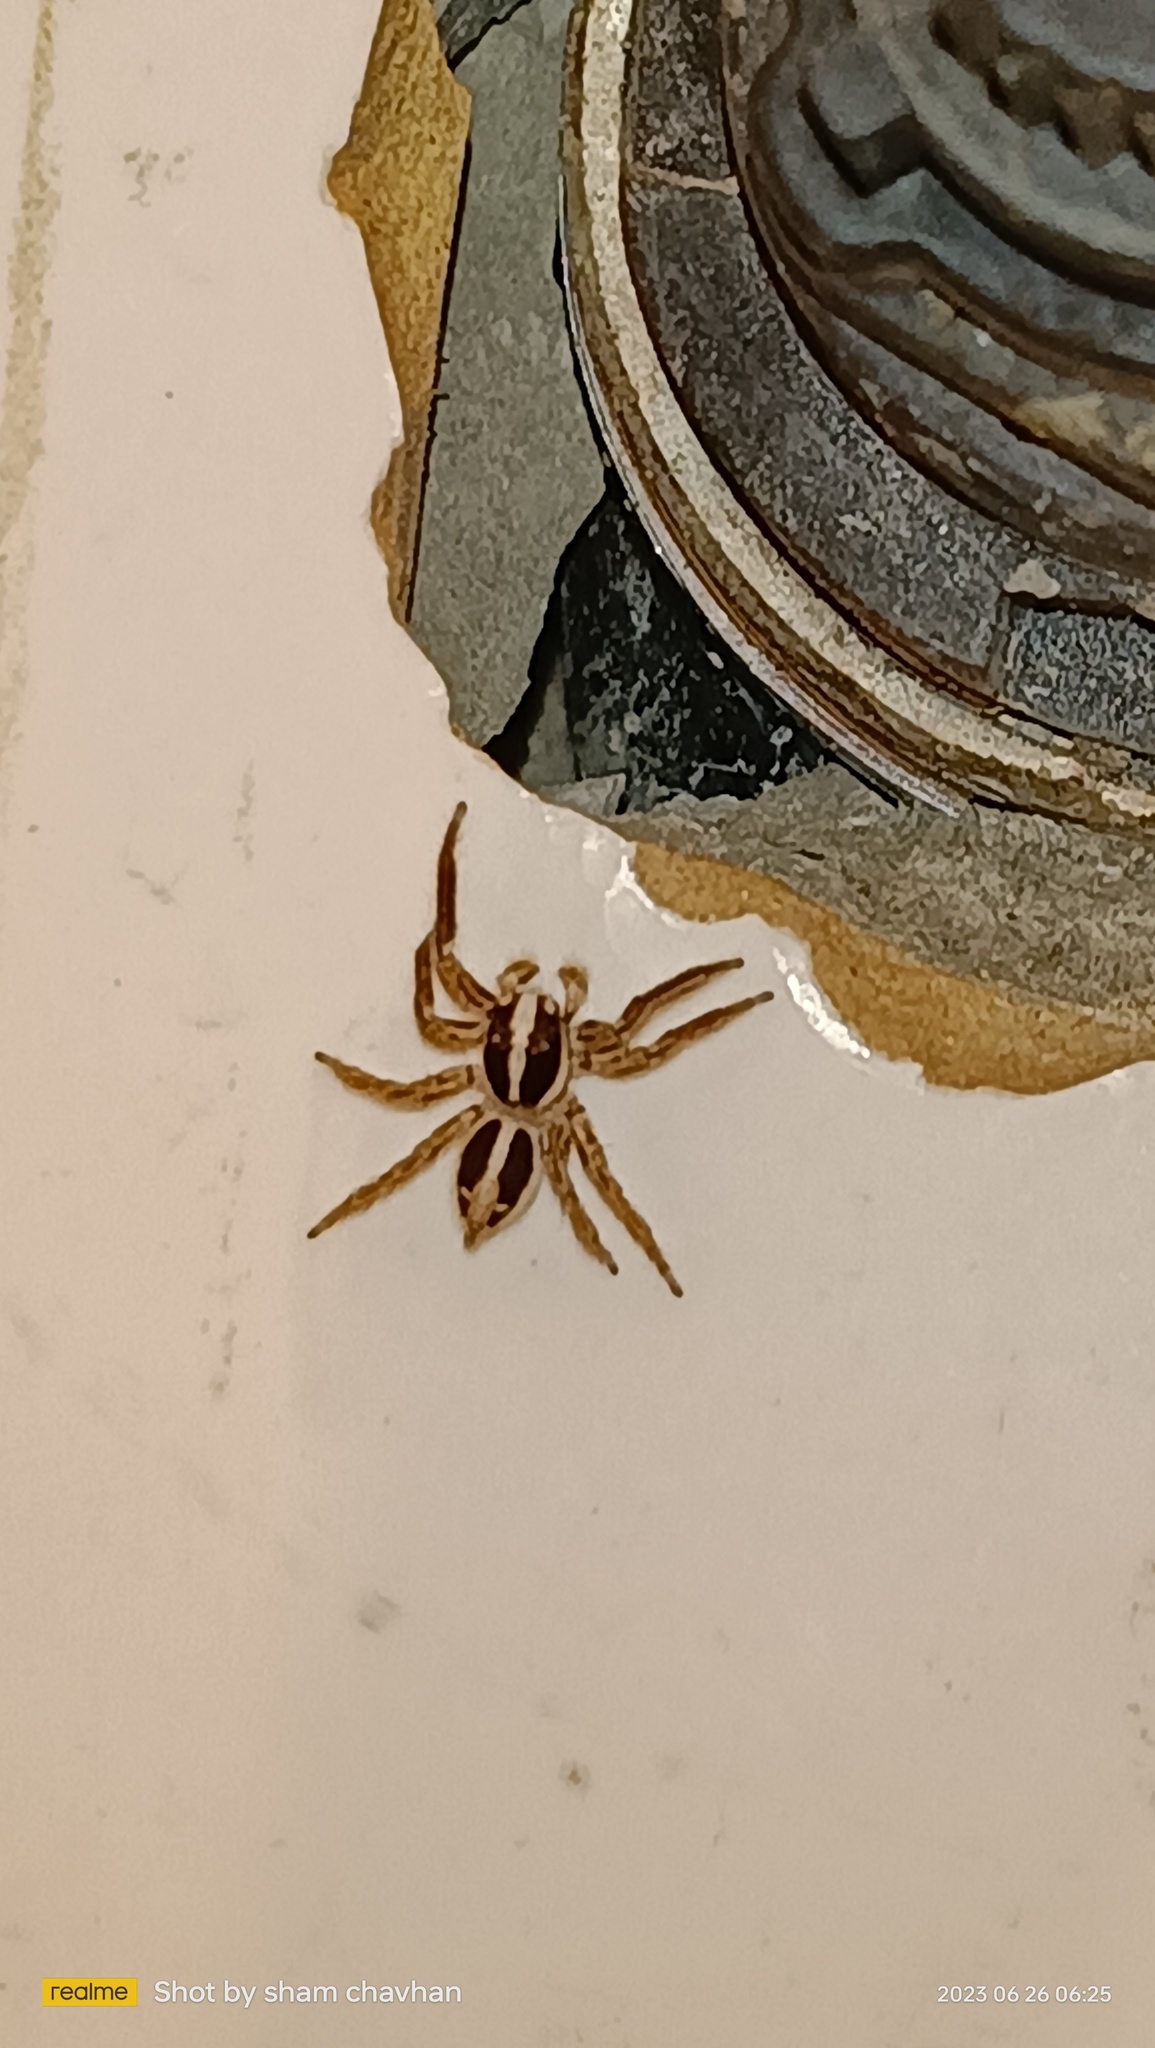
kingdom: Animalia
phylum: Arthropoda
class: Arachnida
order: Araneae
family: Salticidae
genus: Plexippus
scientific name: Plexippus paykulli
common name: Pantropical jumper
